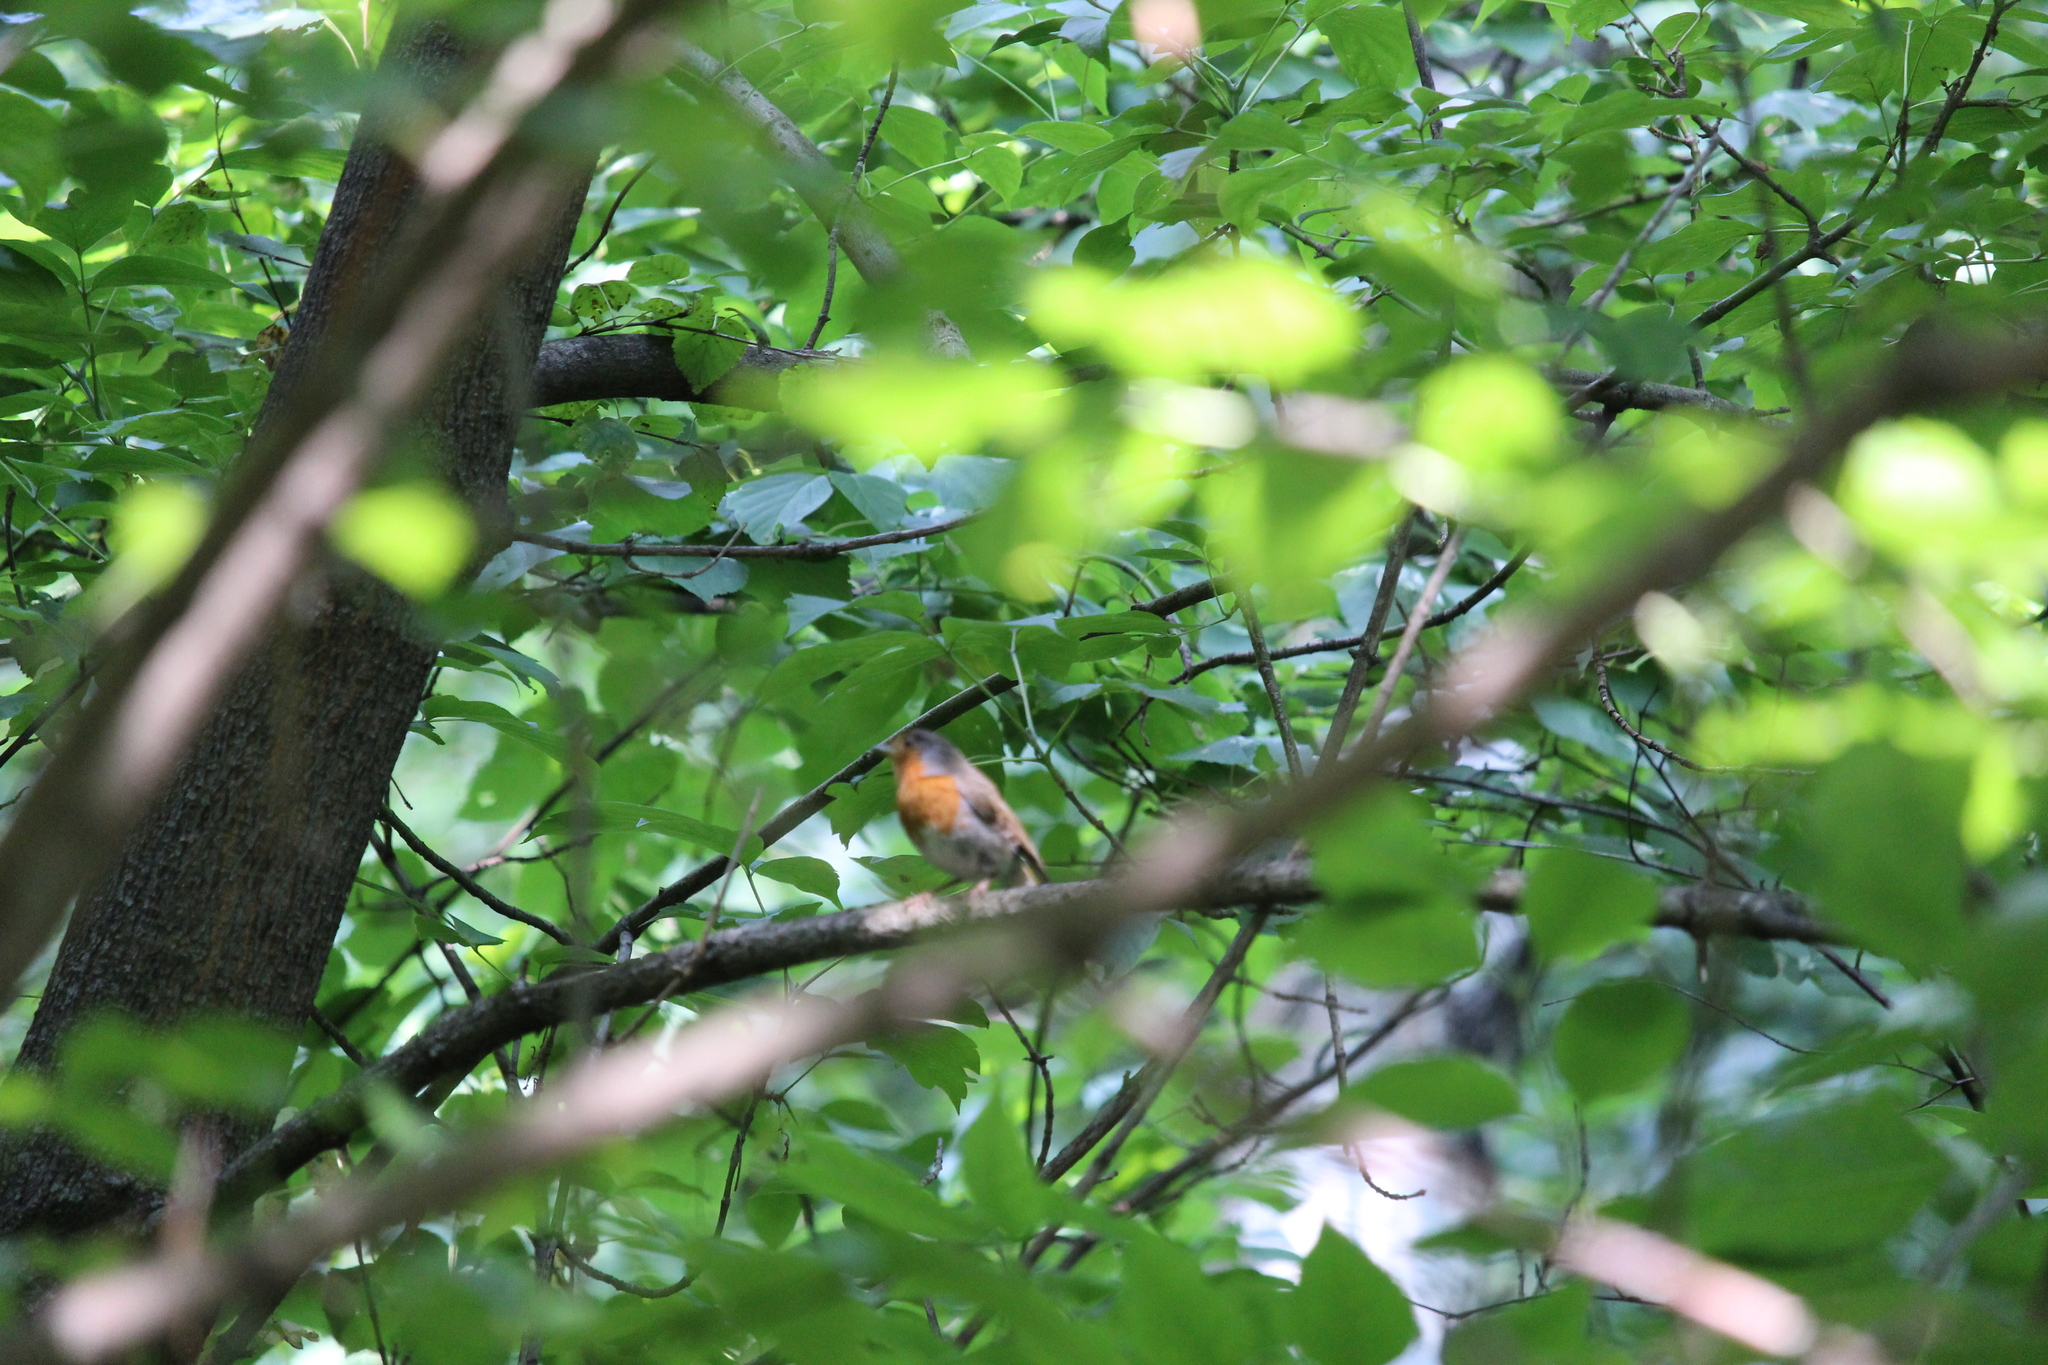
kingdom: Animalia
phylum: Chordata
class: Aves
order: Passeriformes
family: Muscicapidae
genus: Erithacus
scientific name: Erithacus rubecula
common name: European robin
